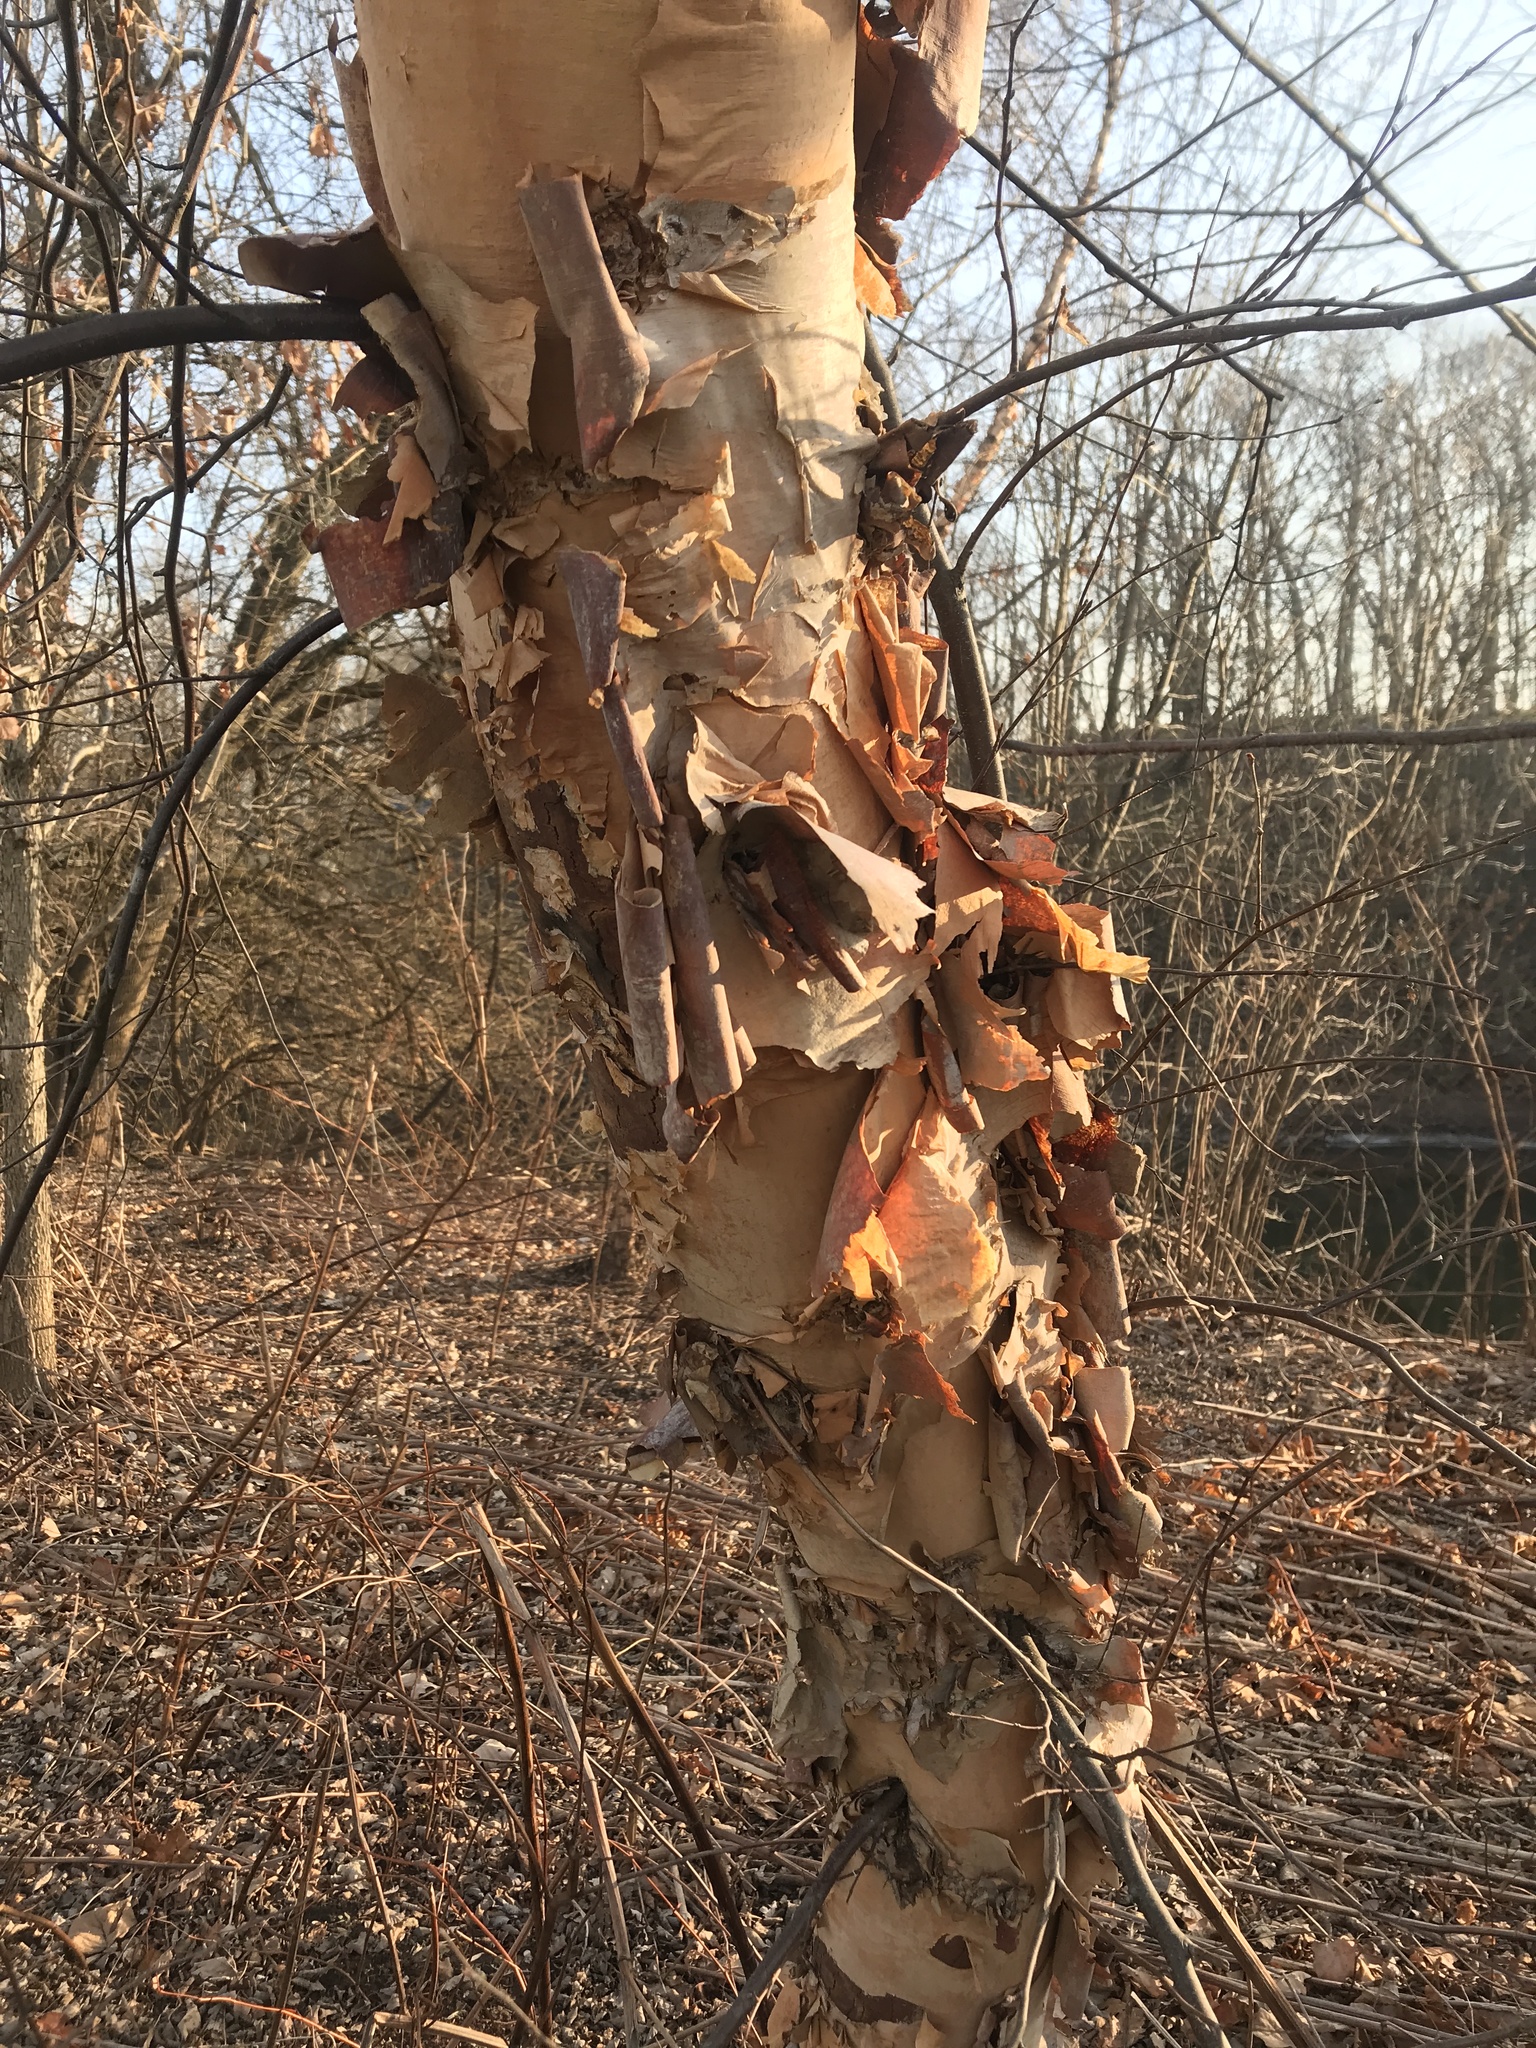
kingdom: Plantae
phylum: Tracheophyta
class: Magnoliopsida
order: Fagales
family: Betulaceae
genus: Betula
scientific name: Betula nigra
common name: Black birch
